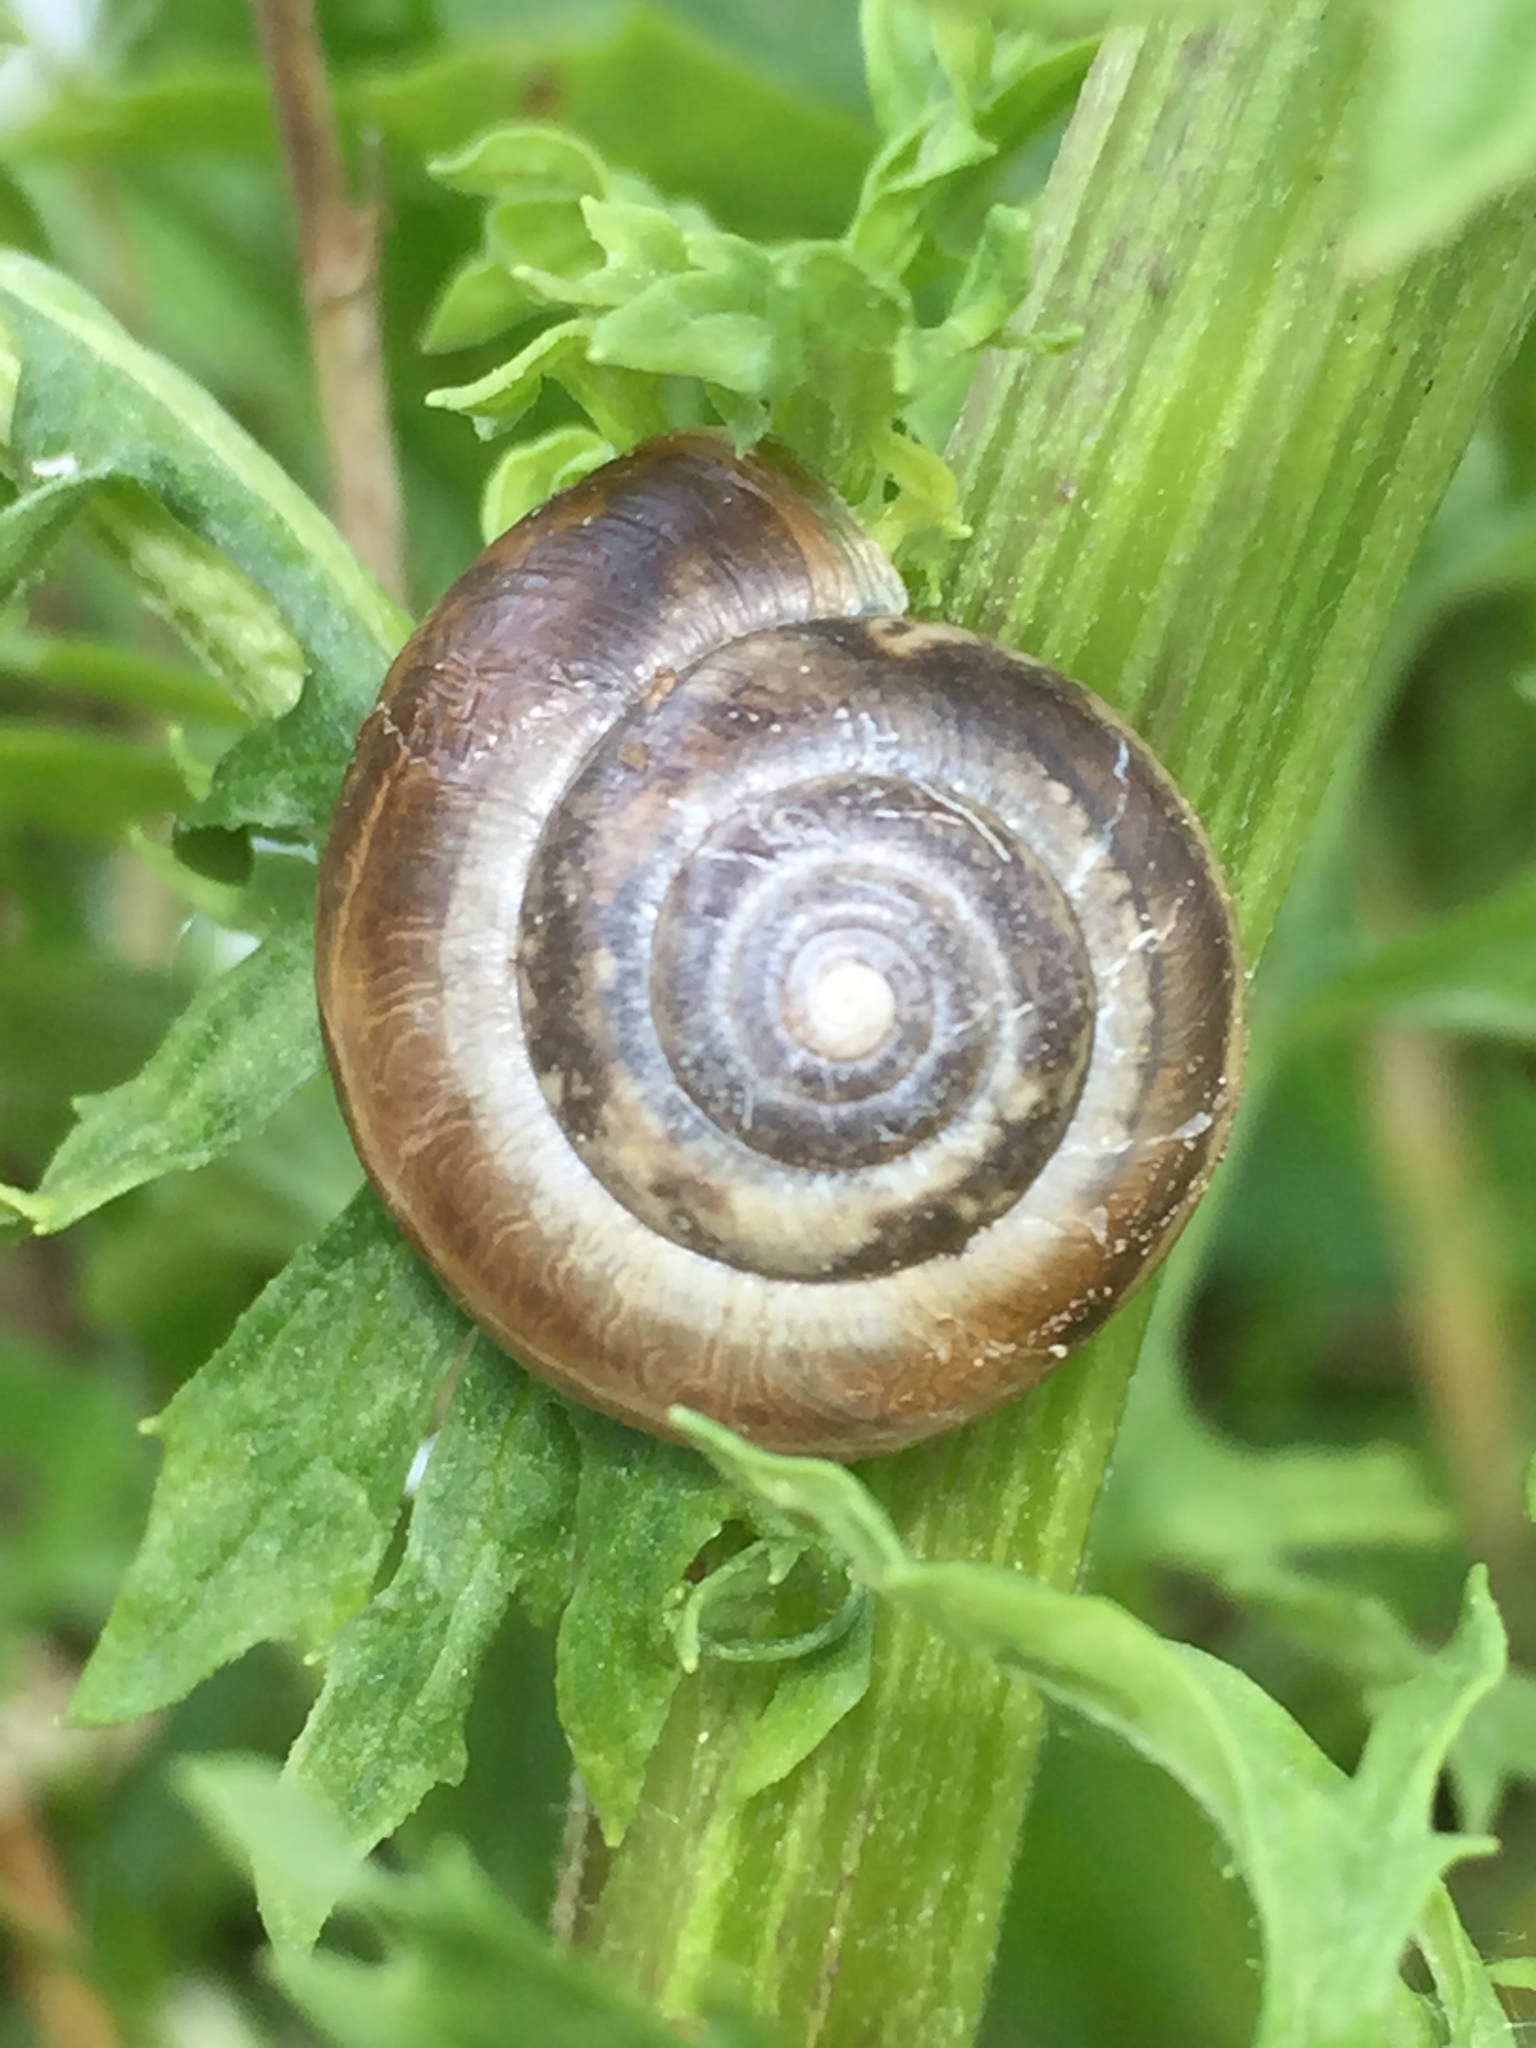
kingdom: Animalia
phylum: Mollusca
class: Gastropoda
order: Stylommatophora
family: Hygromiidae
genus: Monacha
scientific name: Monacha cantiana
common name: Kentish snail
